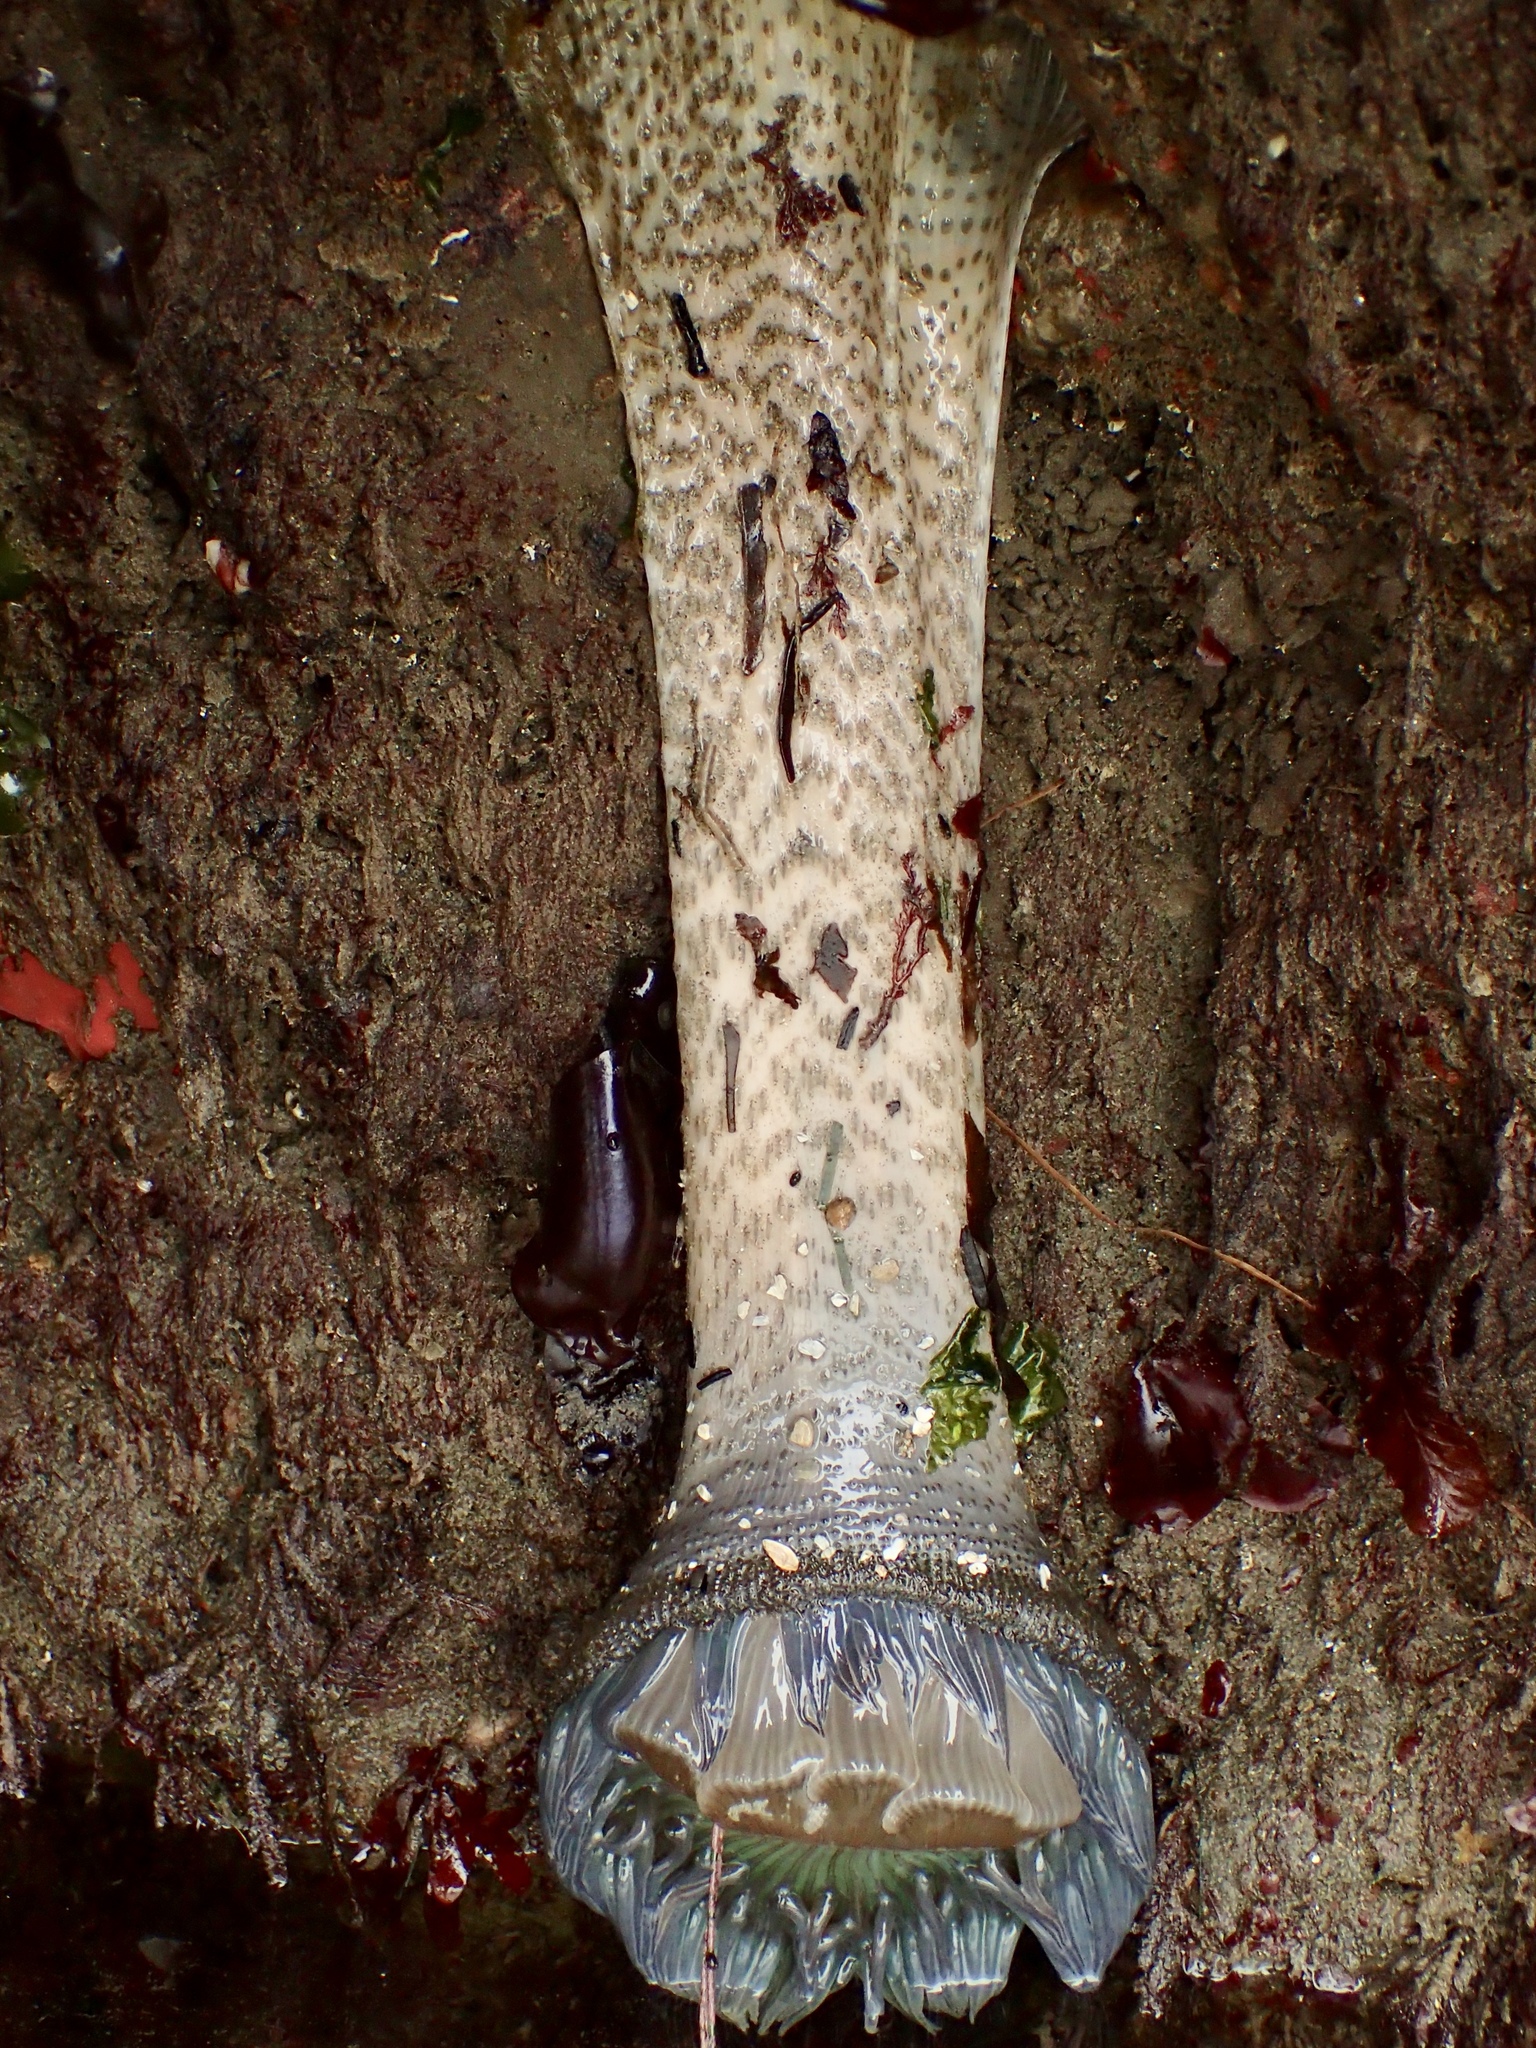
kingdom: Animalia
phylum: Cnidaria
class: Anthozoa
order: Actiniaria
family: Actiniidae
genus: Anthopleura
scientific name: Anthopleura sola
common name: Sun anemone
